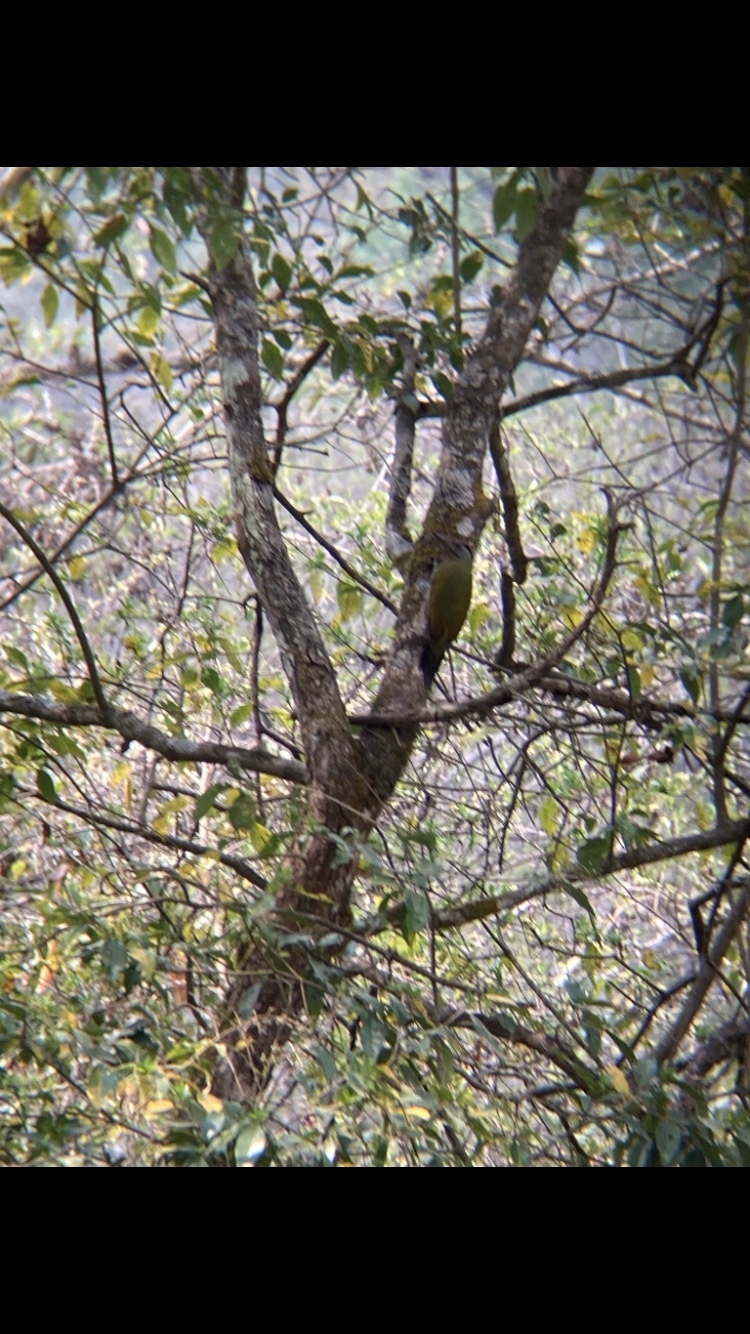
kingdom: Animalia
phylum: Chordata
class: Aves
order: Piciformes
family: Picidae
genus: Picus
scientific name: Picus canus
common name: Grey-headed woodpecker
